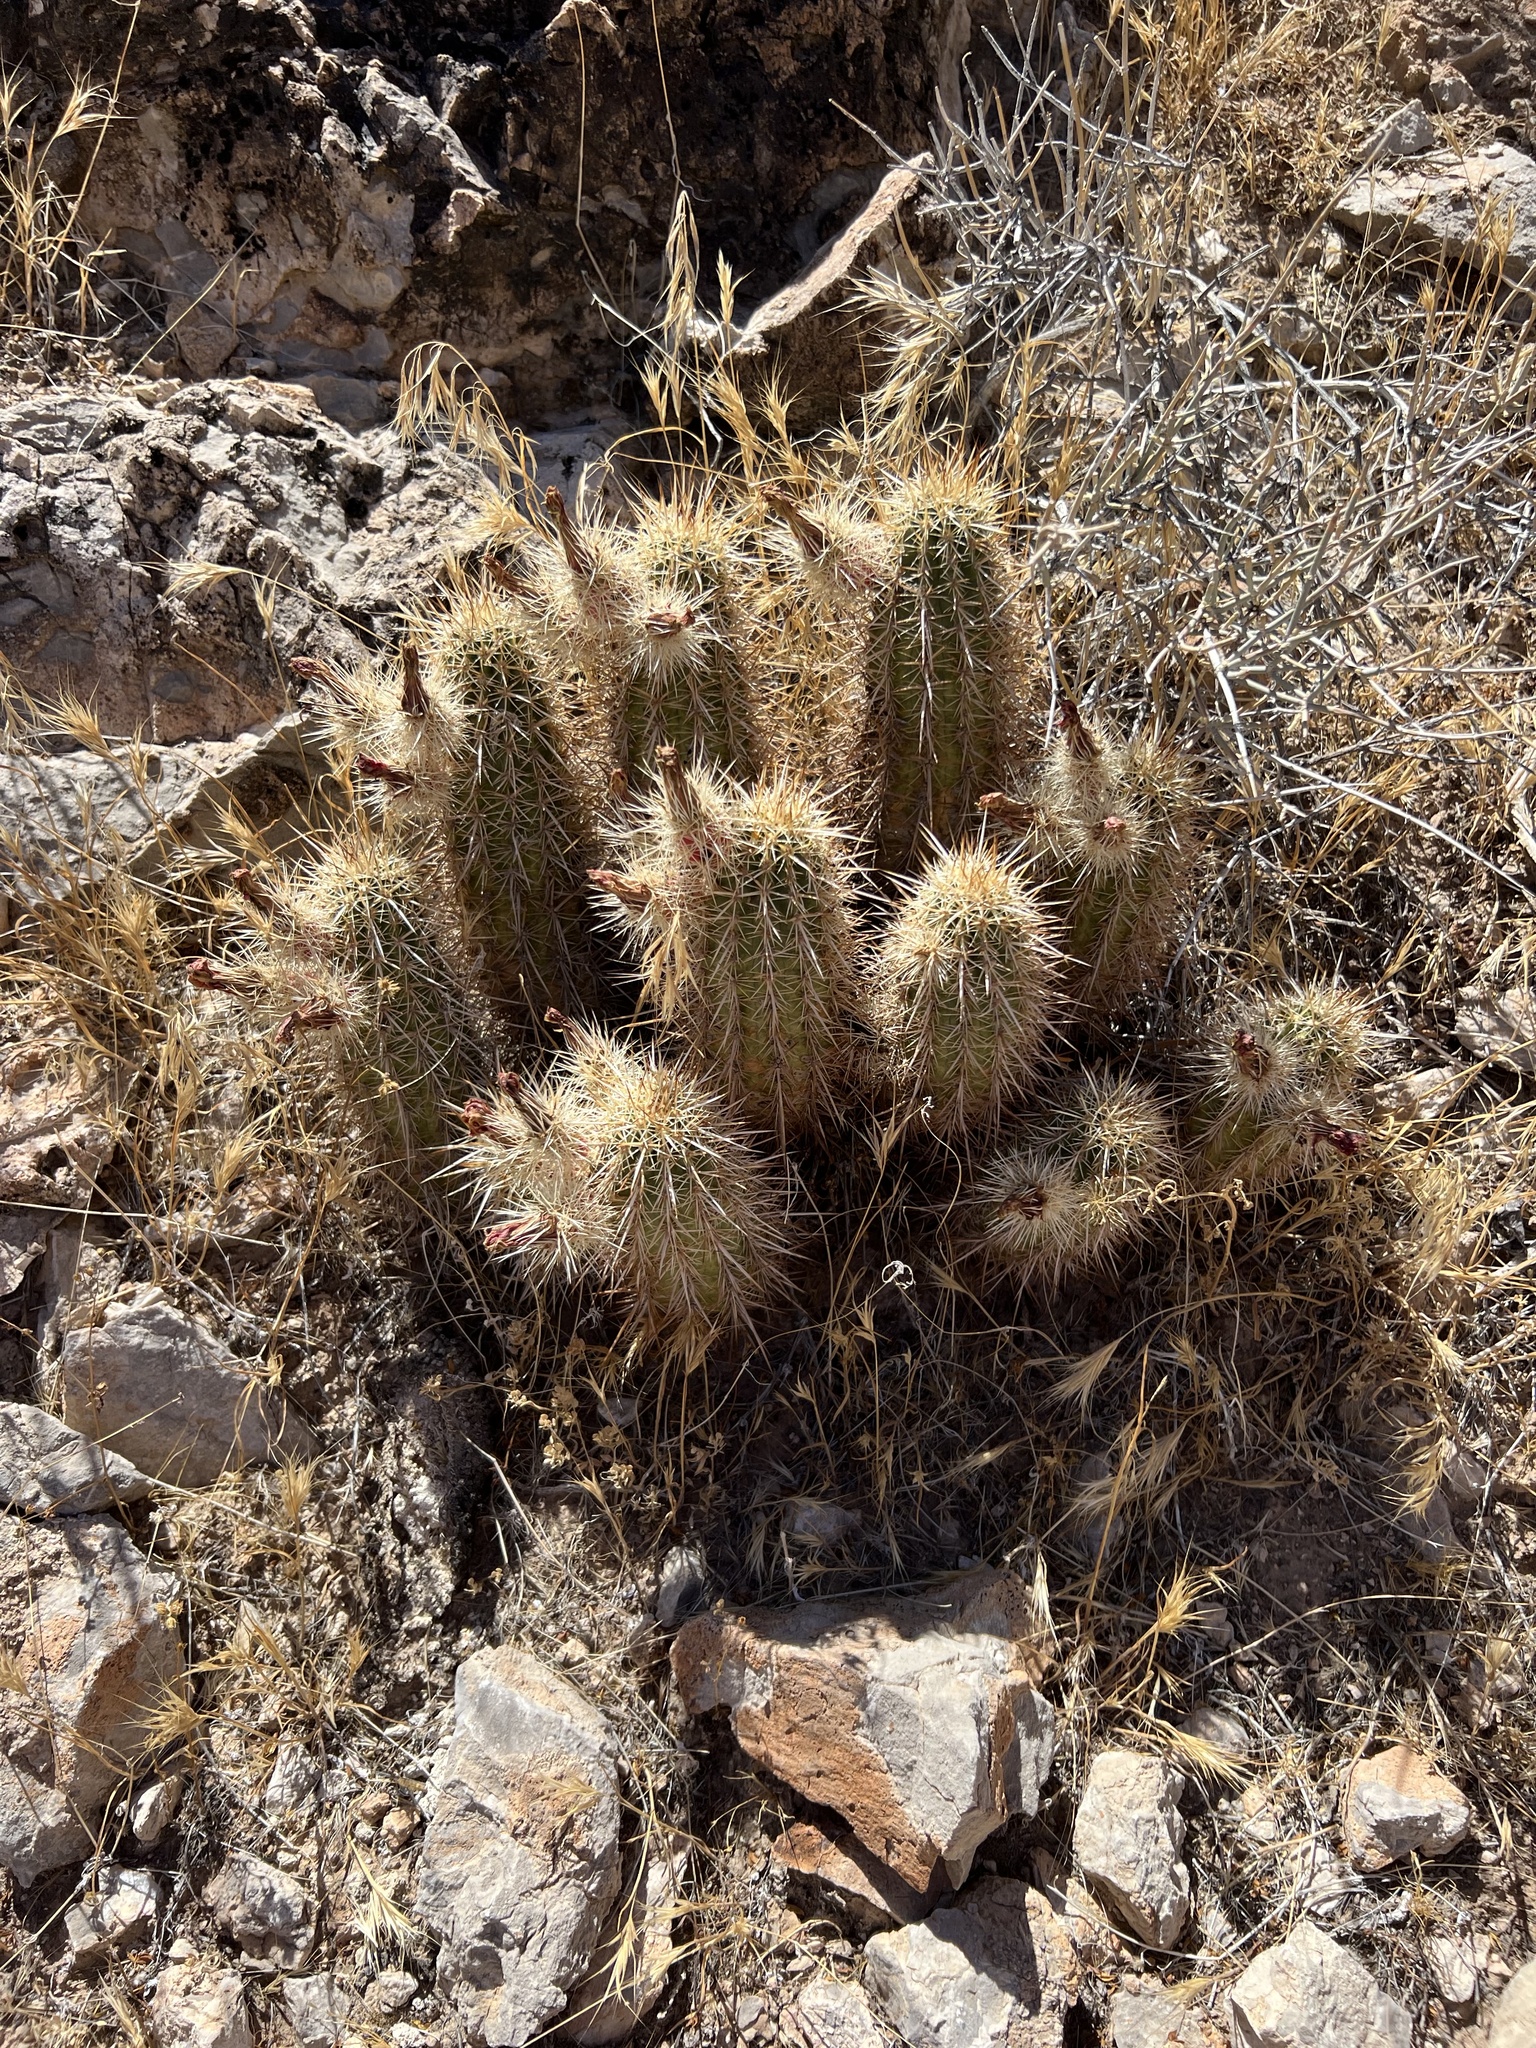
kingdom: Plantae
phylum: Tracheophyta
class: Magnoliopsida
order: Caryophyllales
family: Cactaceae
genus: Echinocereus
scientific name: Echinocereus engelmannii
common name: Engelmann's hedgehog cactus
